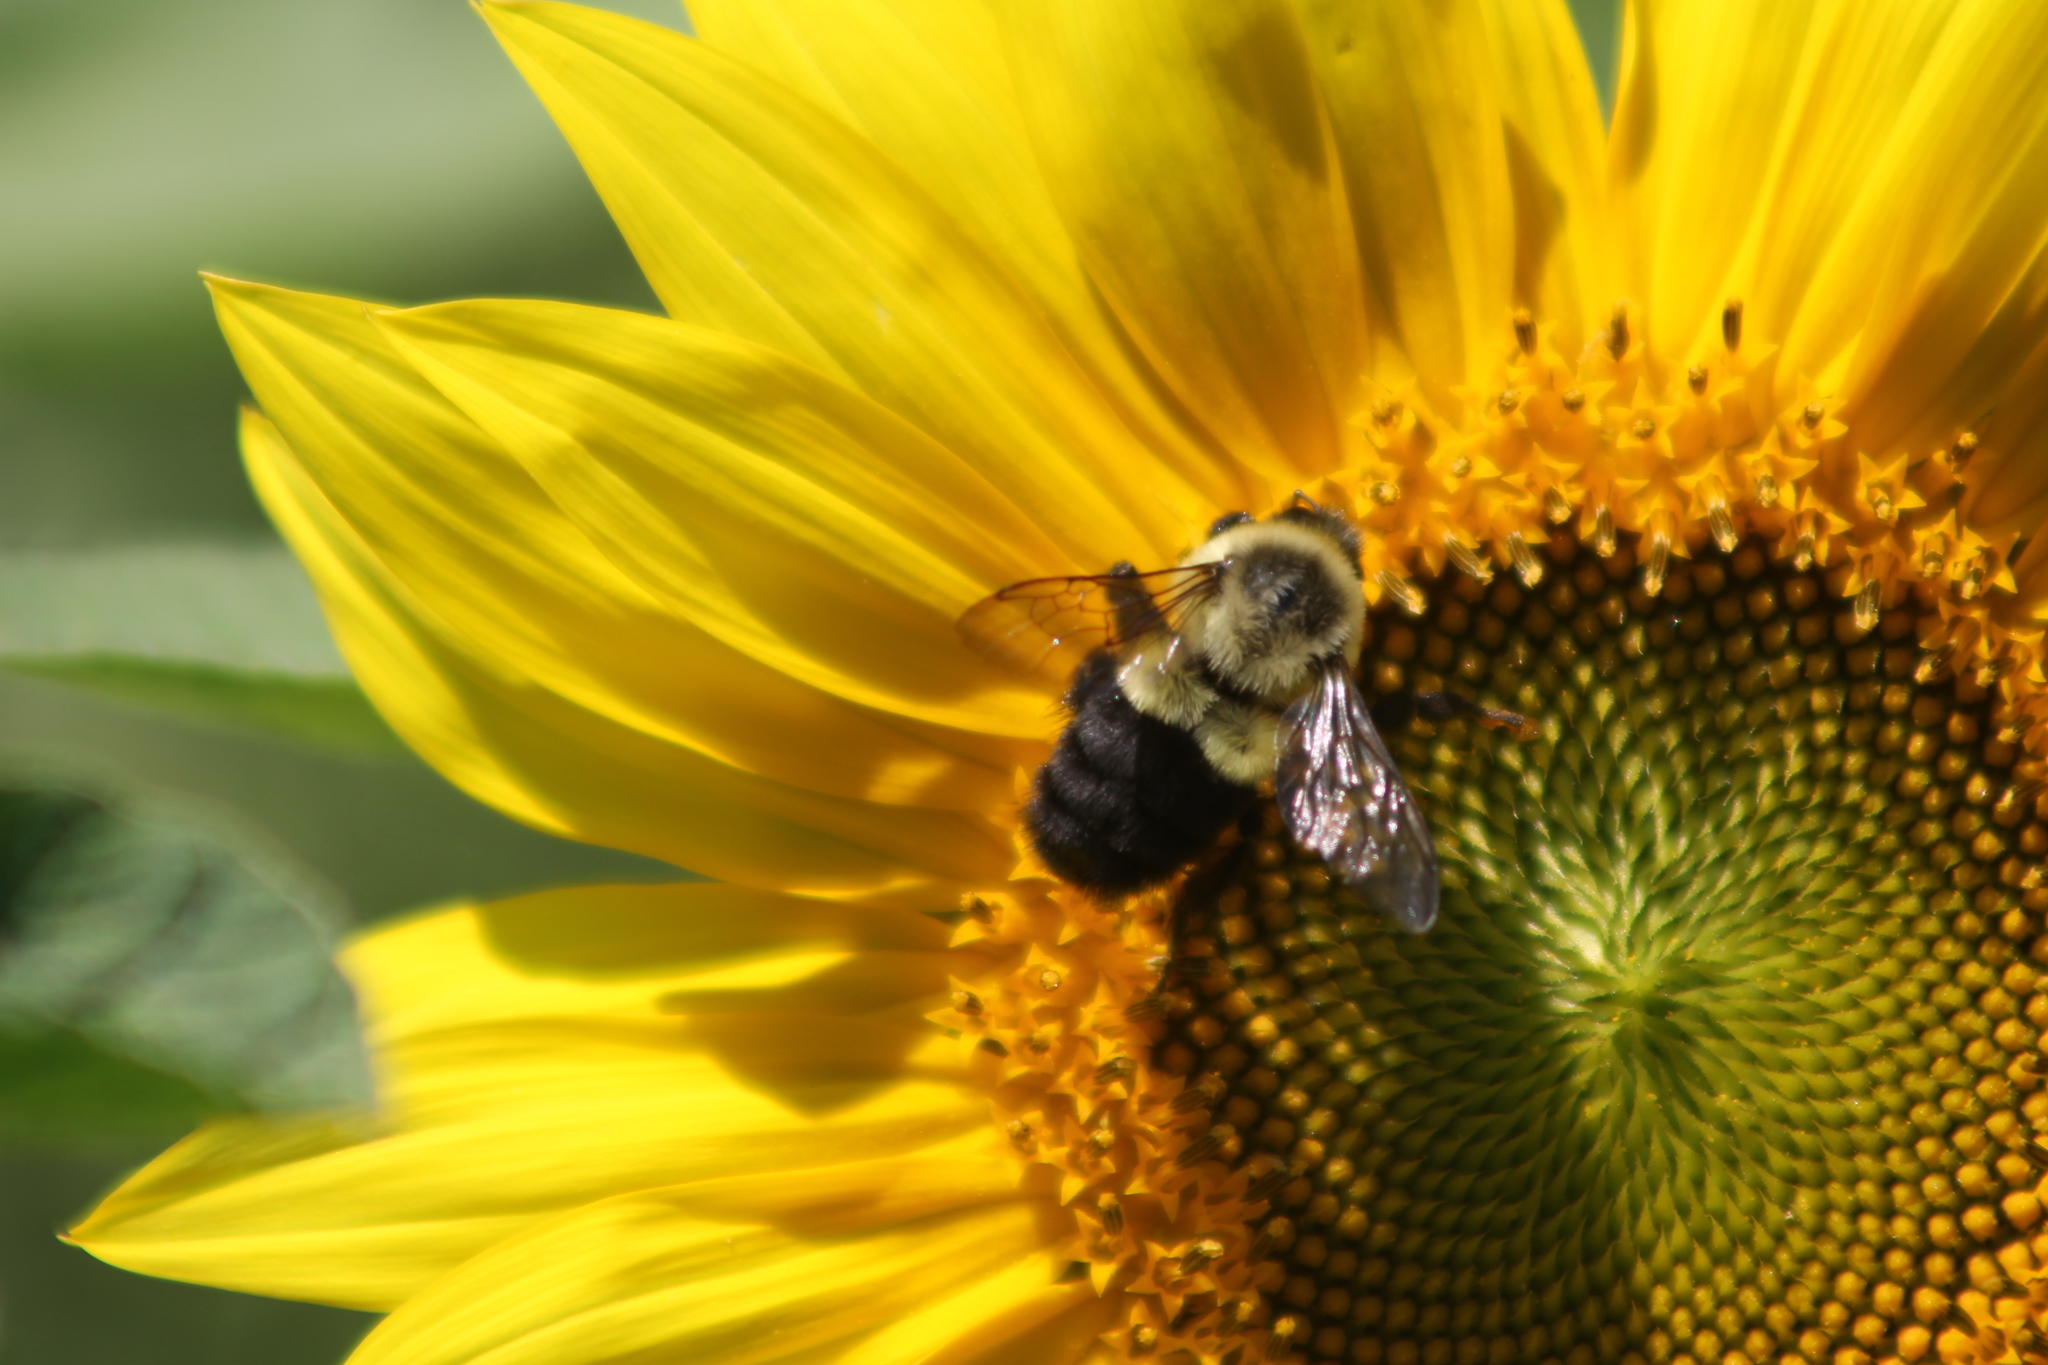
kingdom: Animalia
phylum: Arthropoda
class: Insecta
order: Hymenoptera
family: Apidae
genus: Bombus
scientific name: Bombus impatiens
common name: Common eastern bumble bee
